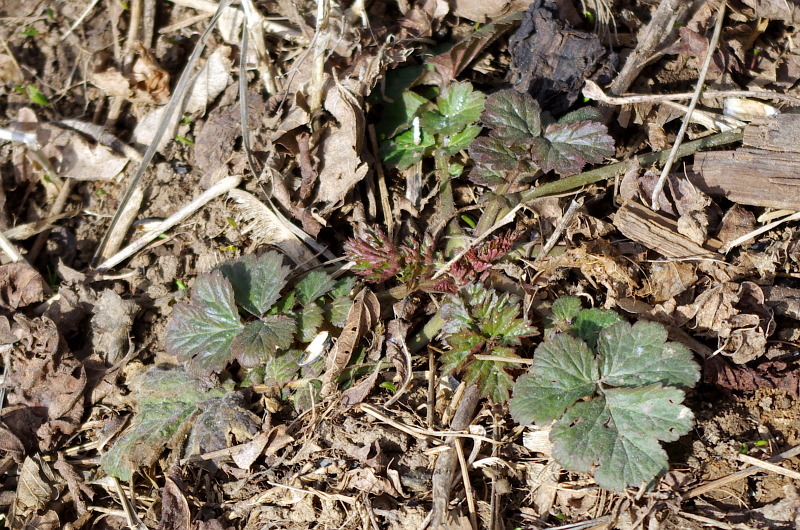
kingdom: Plantae
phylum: Tracheophyta
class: Magnoliopsida
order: Rosales
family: Rosaceae
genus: Geum
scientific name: Geum
